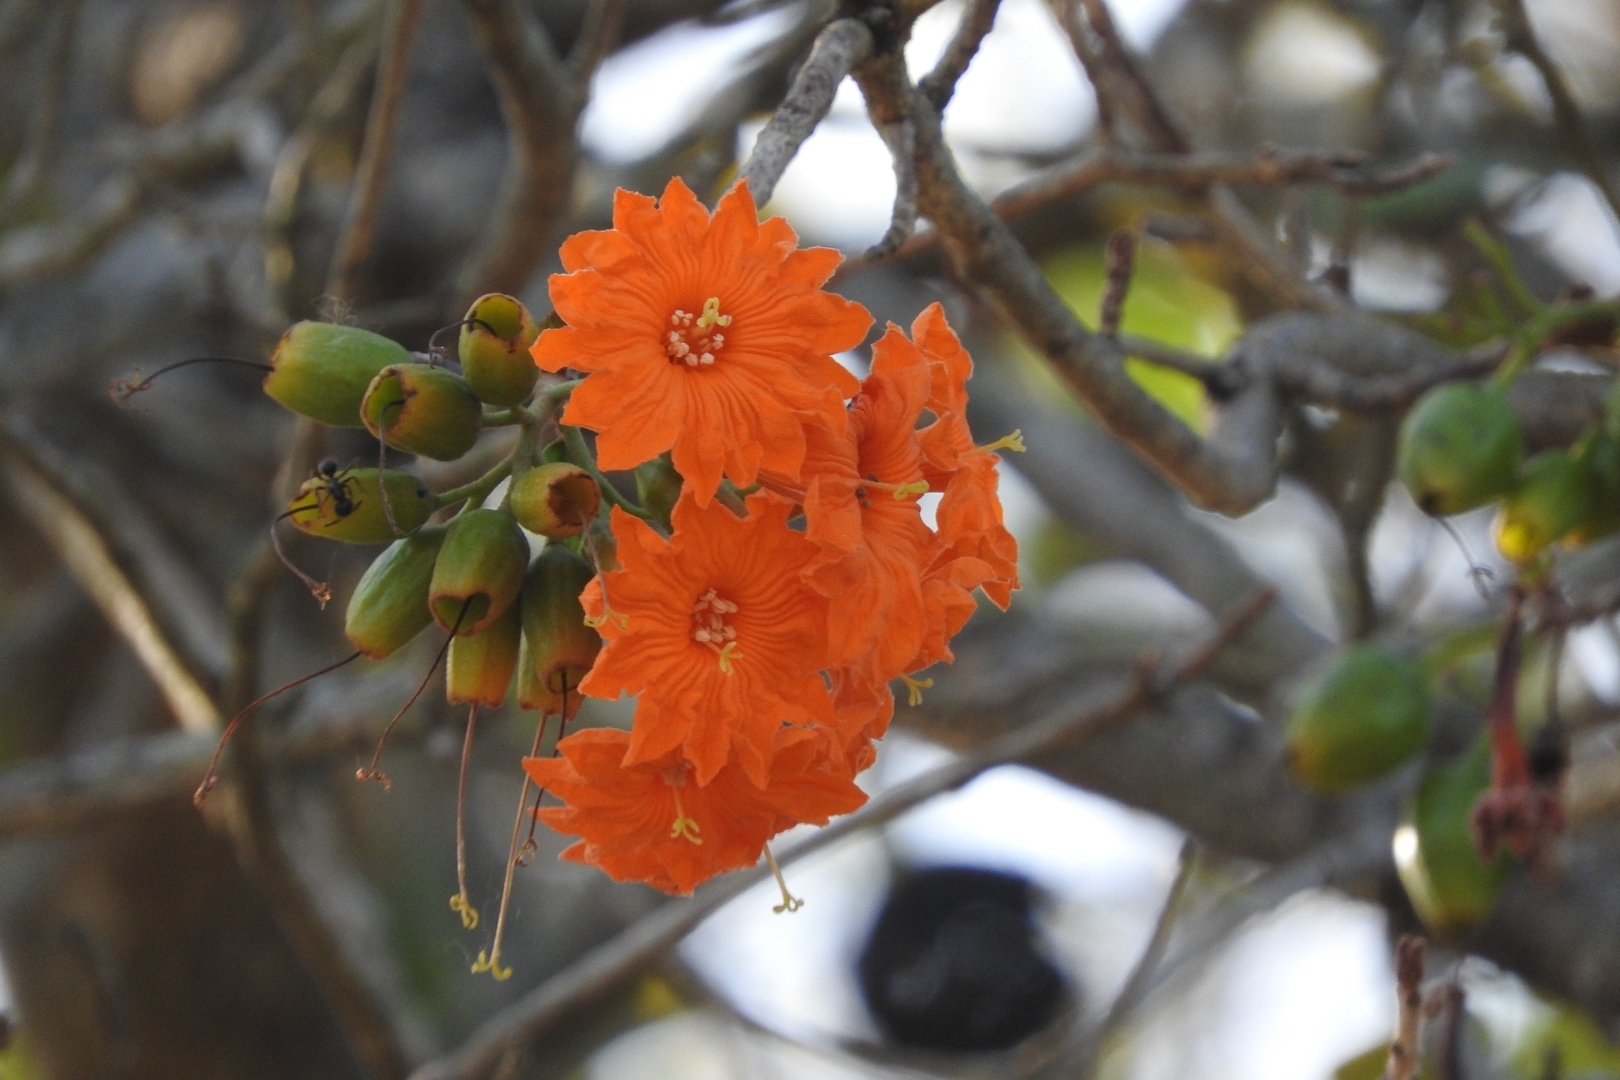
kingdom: Plantae
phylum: Tracheophyta
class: Magnoliopsida
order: Boraginales
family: Cordiaceae
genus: Cordia
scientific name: Cordia dodecandra
